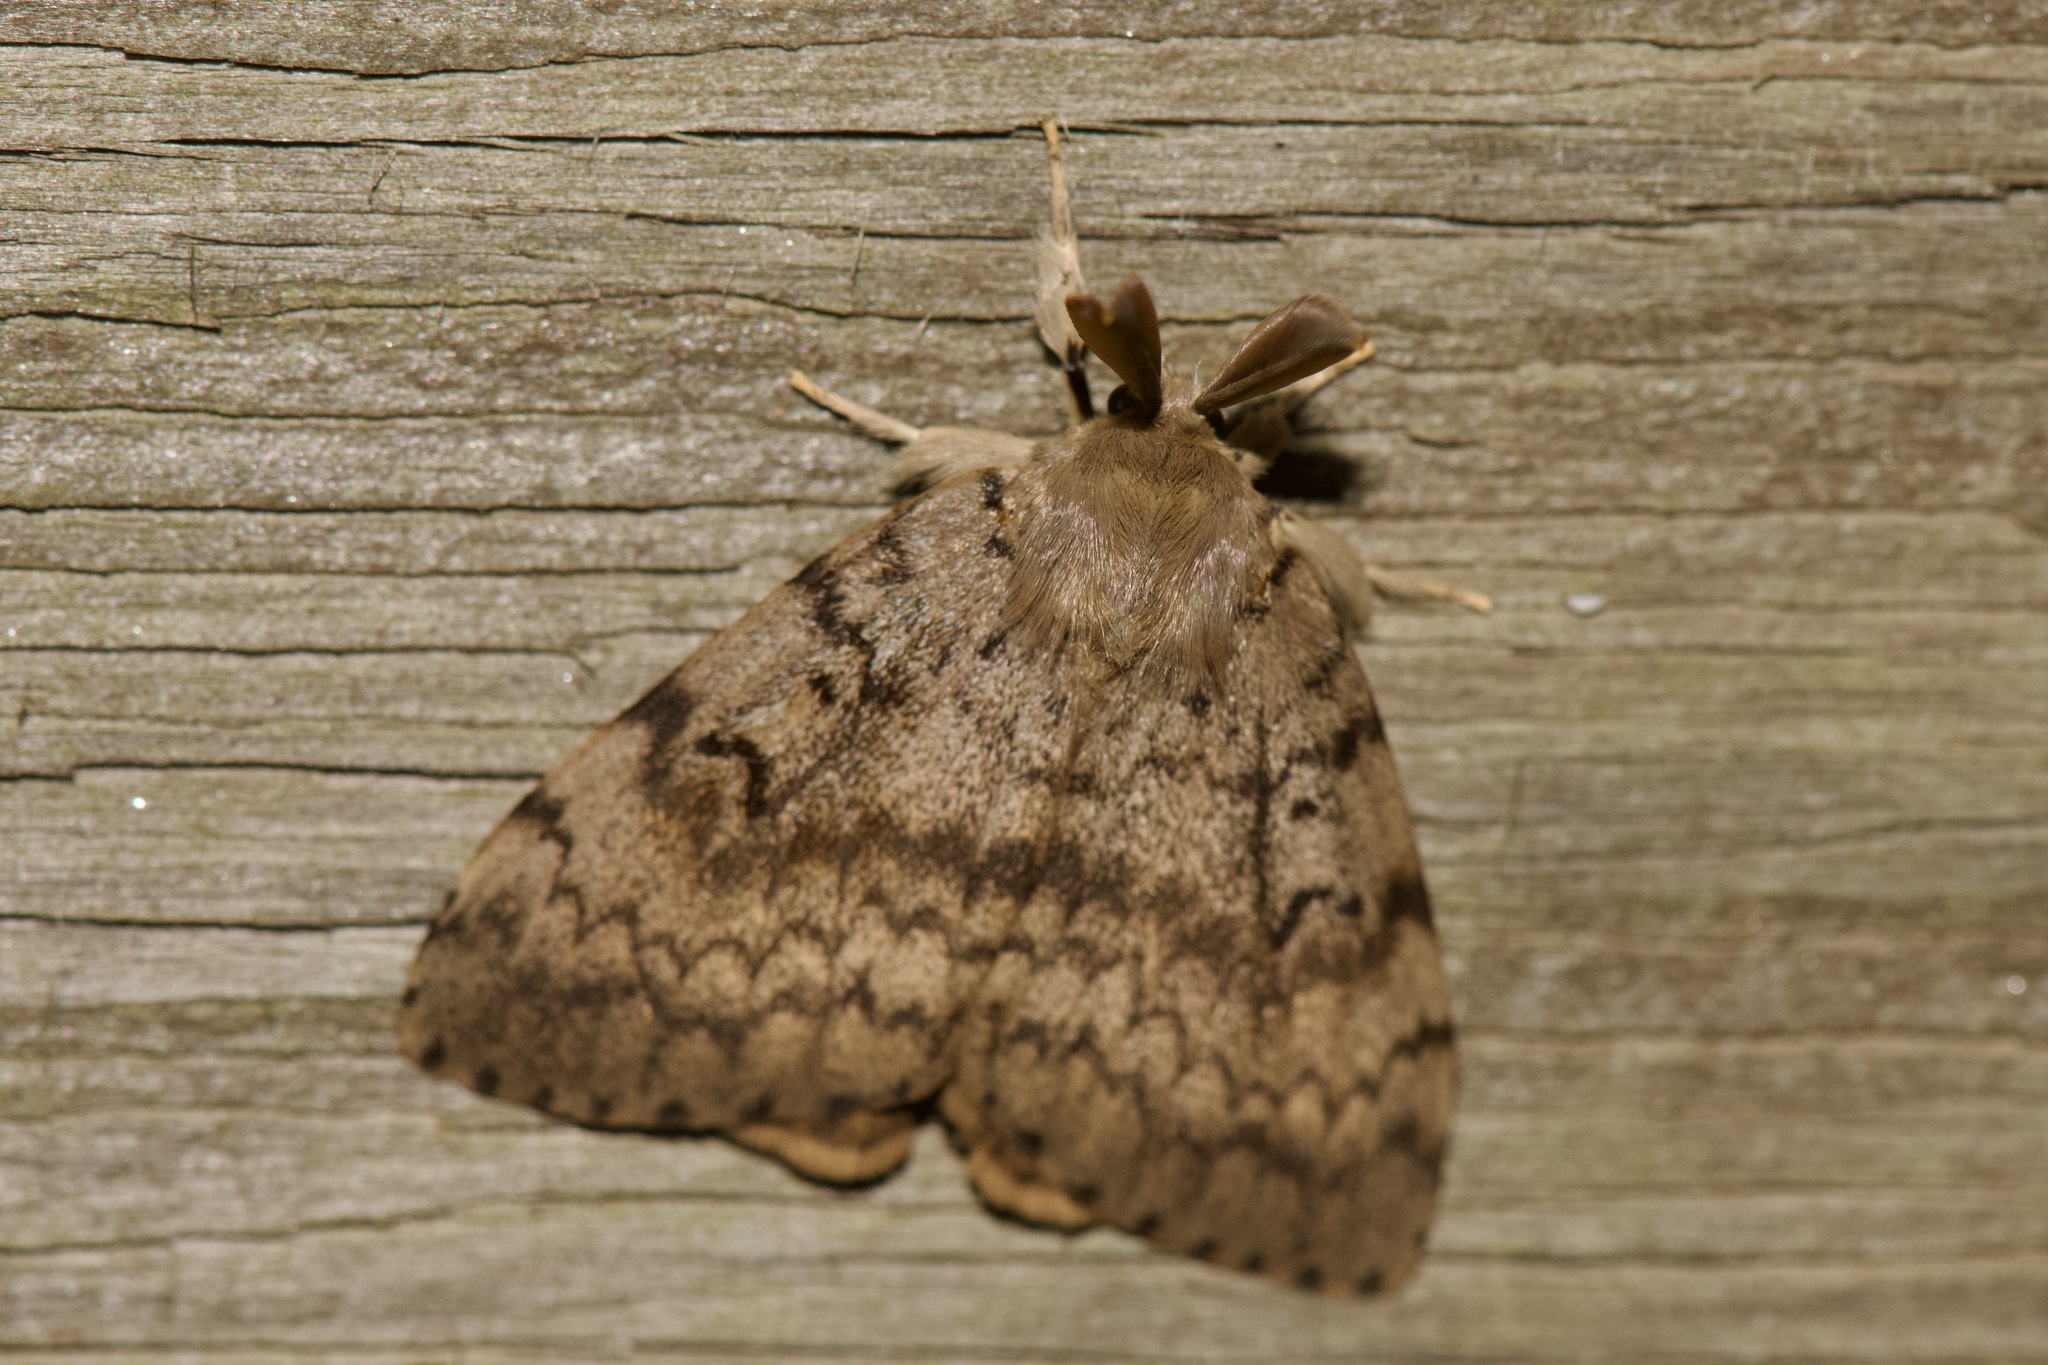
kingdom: Animalia
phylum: Arthropoda
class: Insecta
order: Lepidoptera
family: Erebidae
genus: Lymantria
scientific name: Lymantria dispar
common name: Gypsy moth
